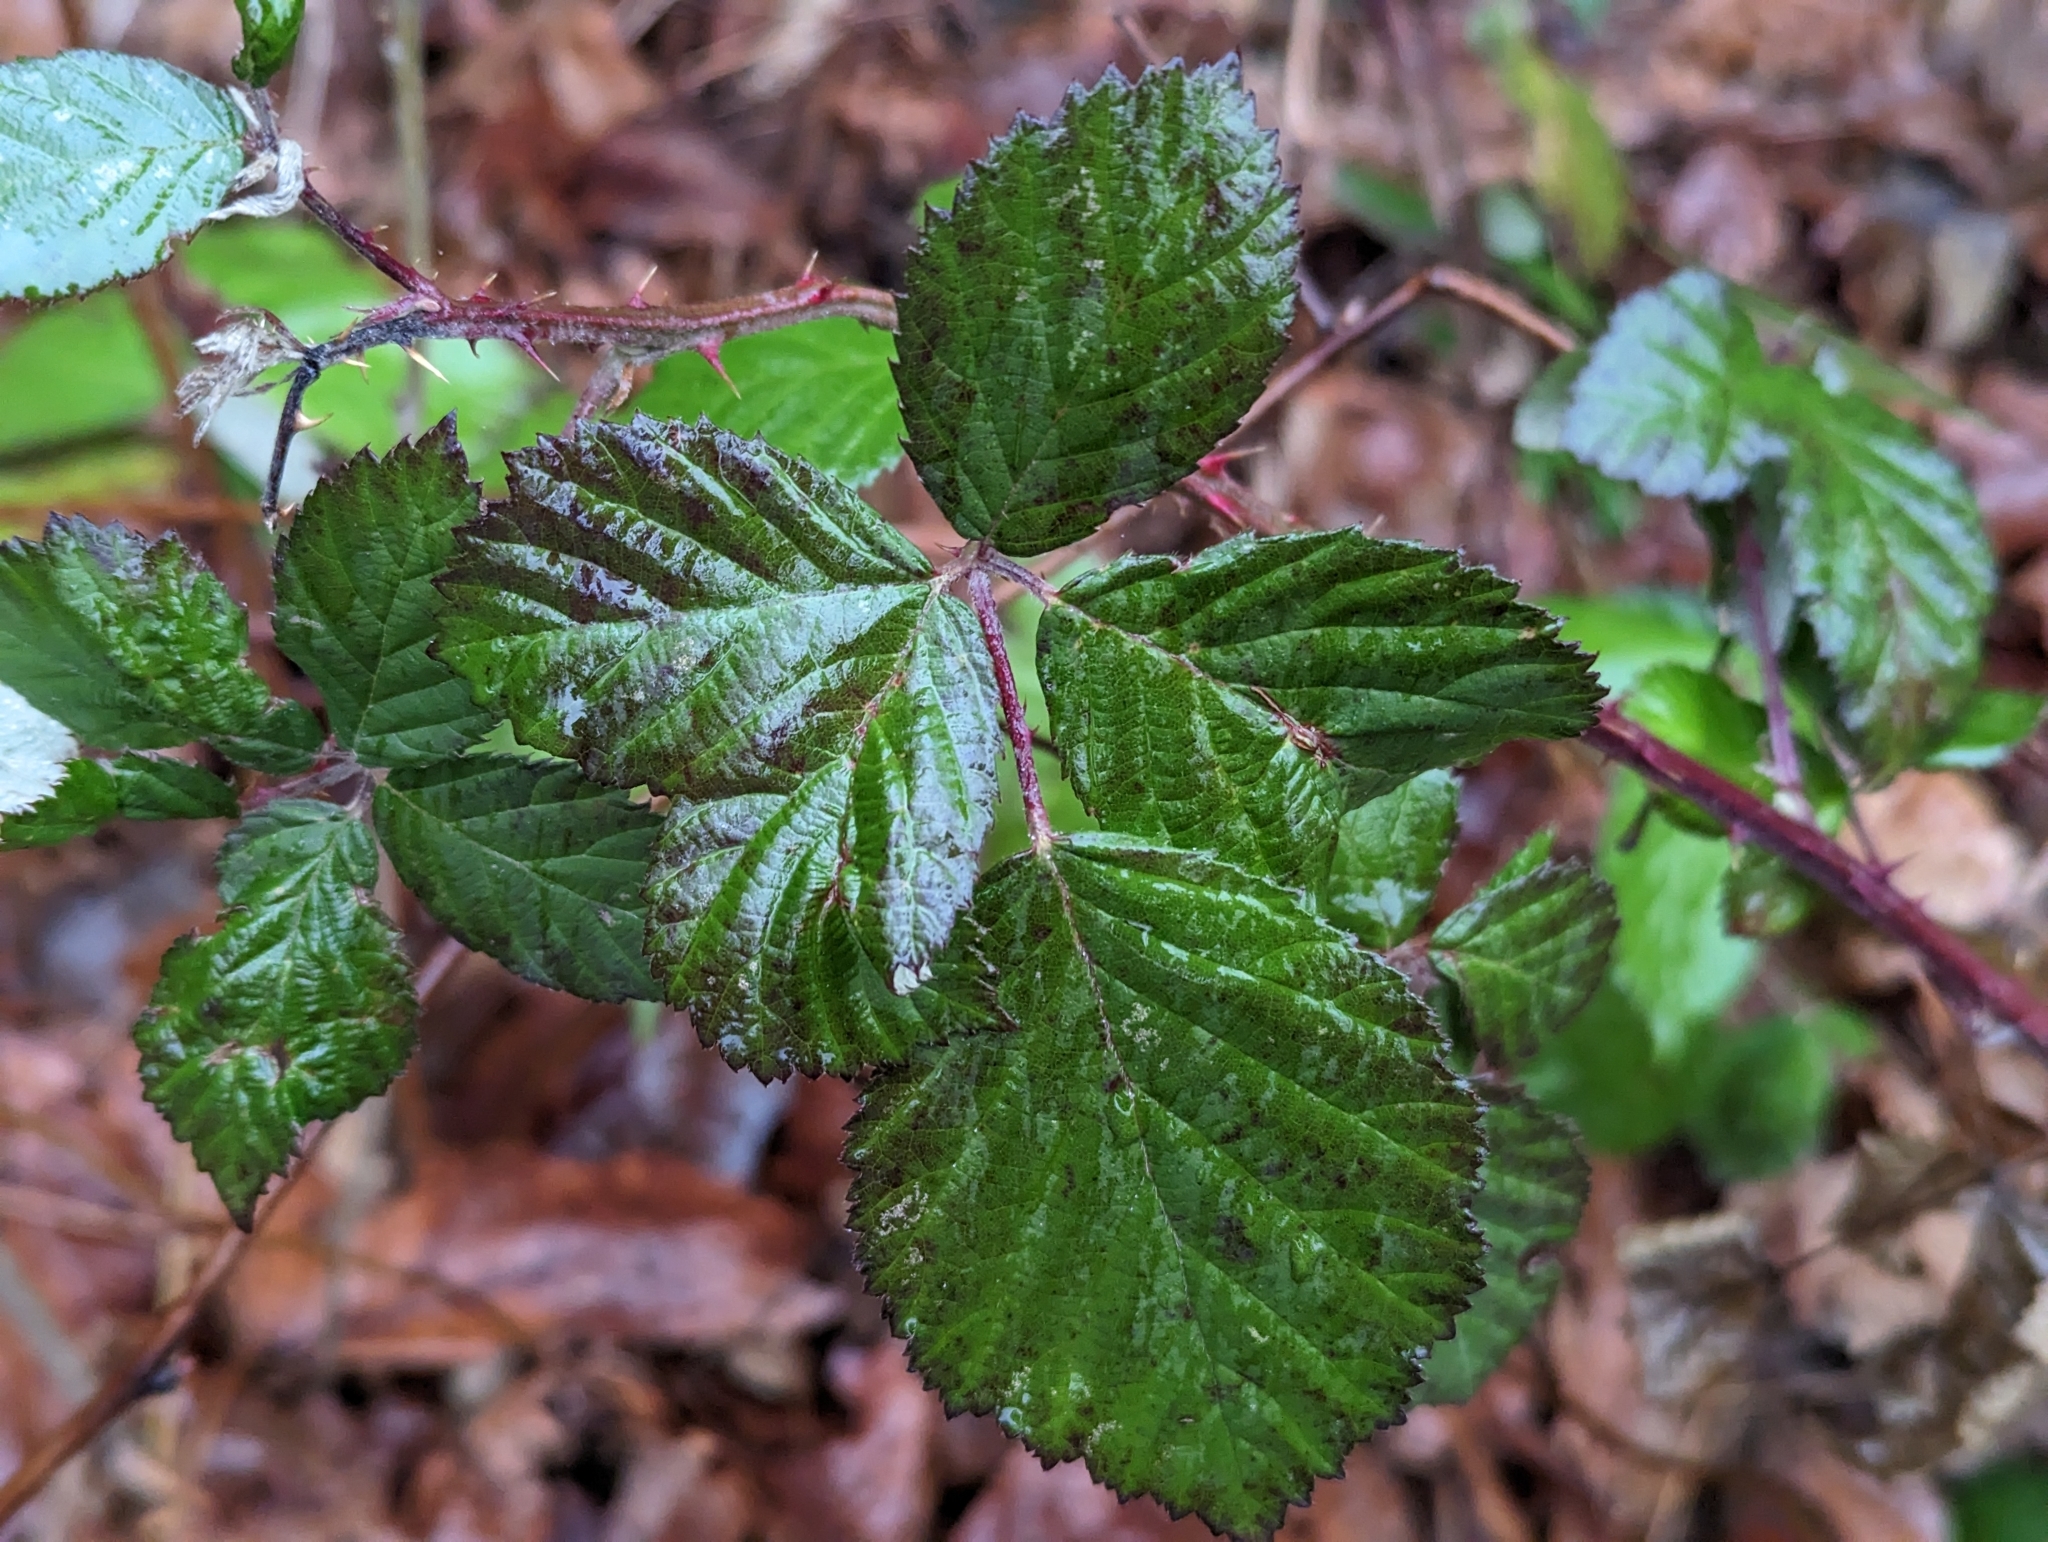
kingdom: Plantae
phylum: Tracheophyta
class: Magnoliopsida
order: Rosales
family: Rosaceae
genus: Rubus
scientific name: Rubus bifrons
